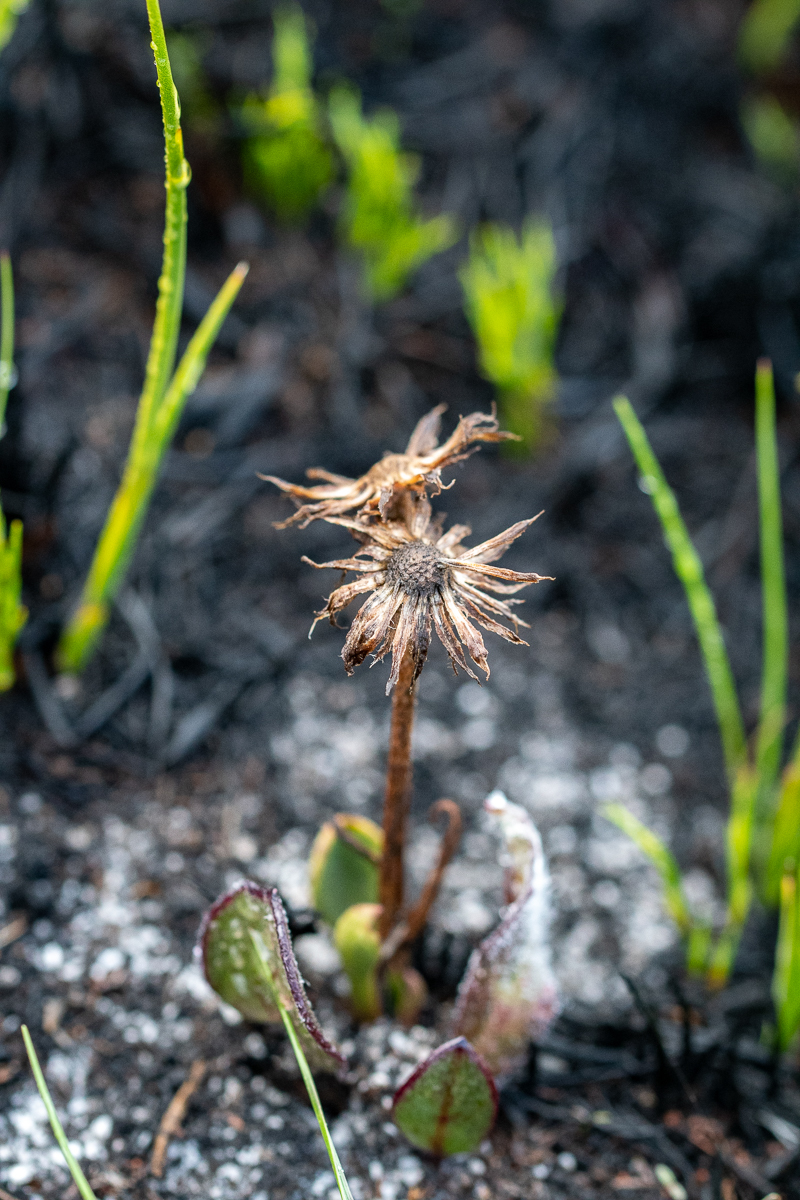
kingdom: Plantae
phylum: Tracheophyta
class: Magnoliopsida
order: Asterales
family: Asteraceae
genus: Mairia
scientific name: Mairia coriacea
